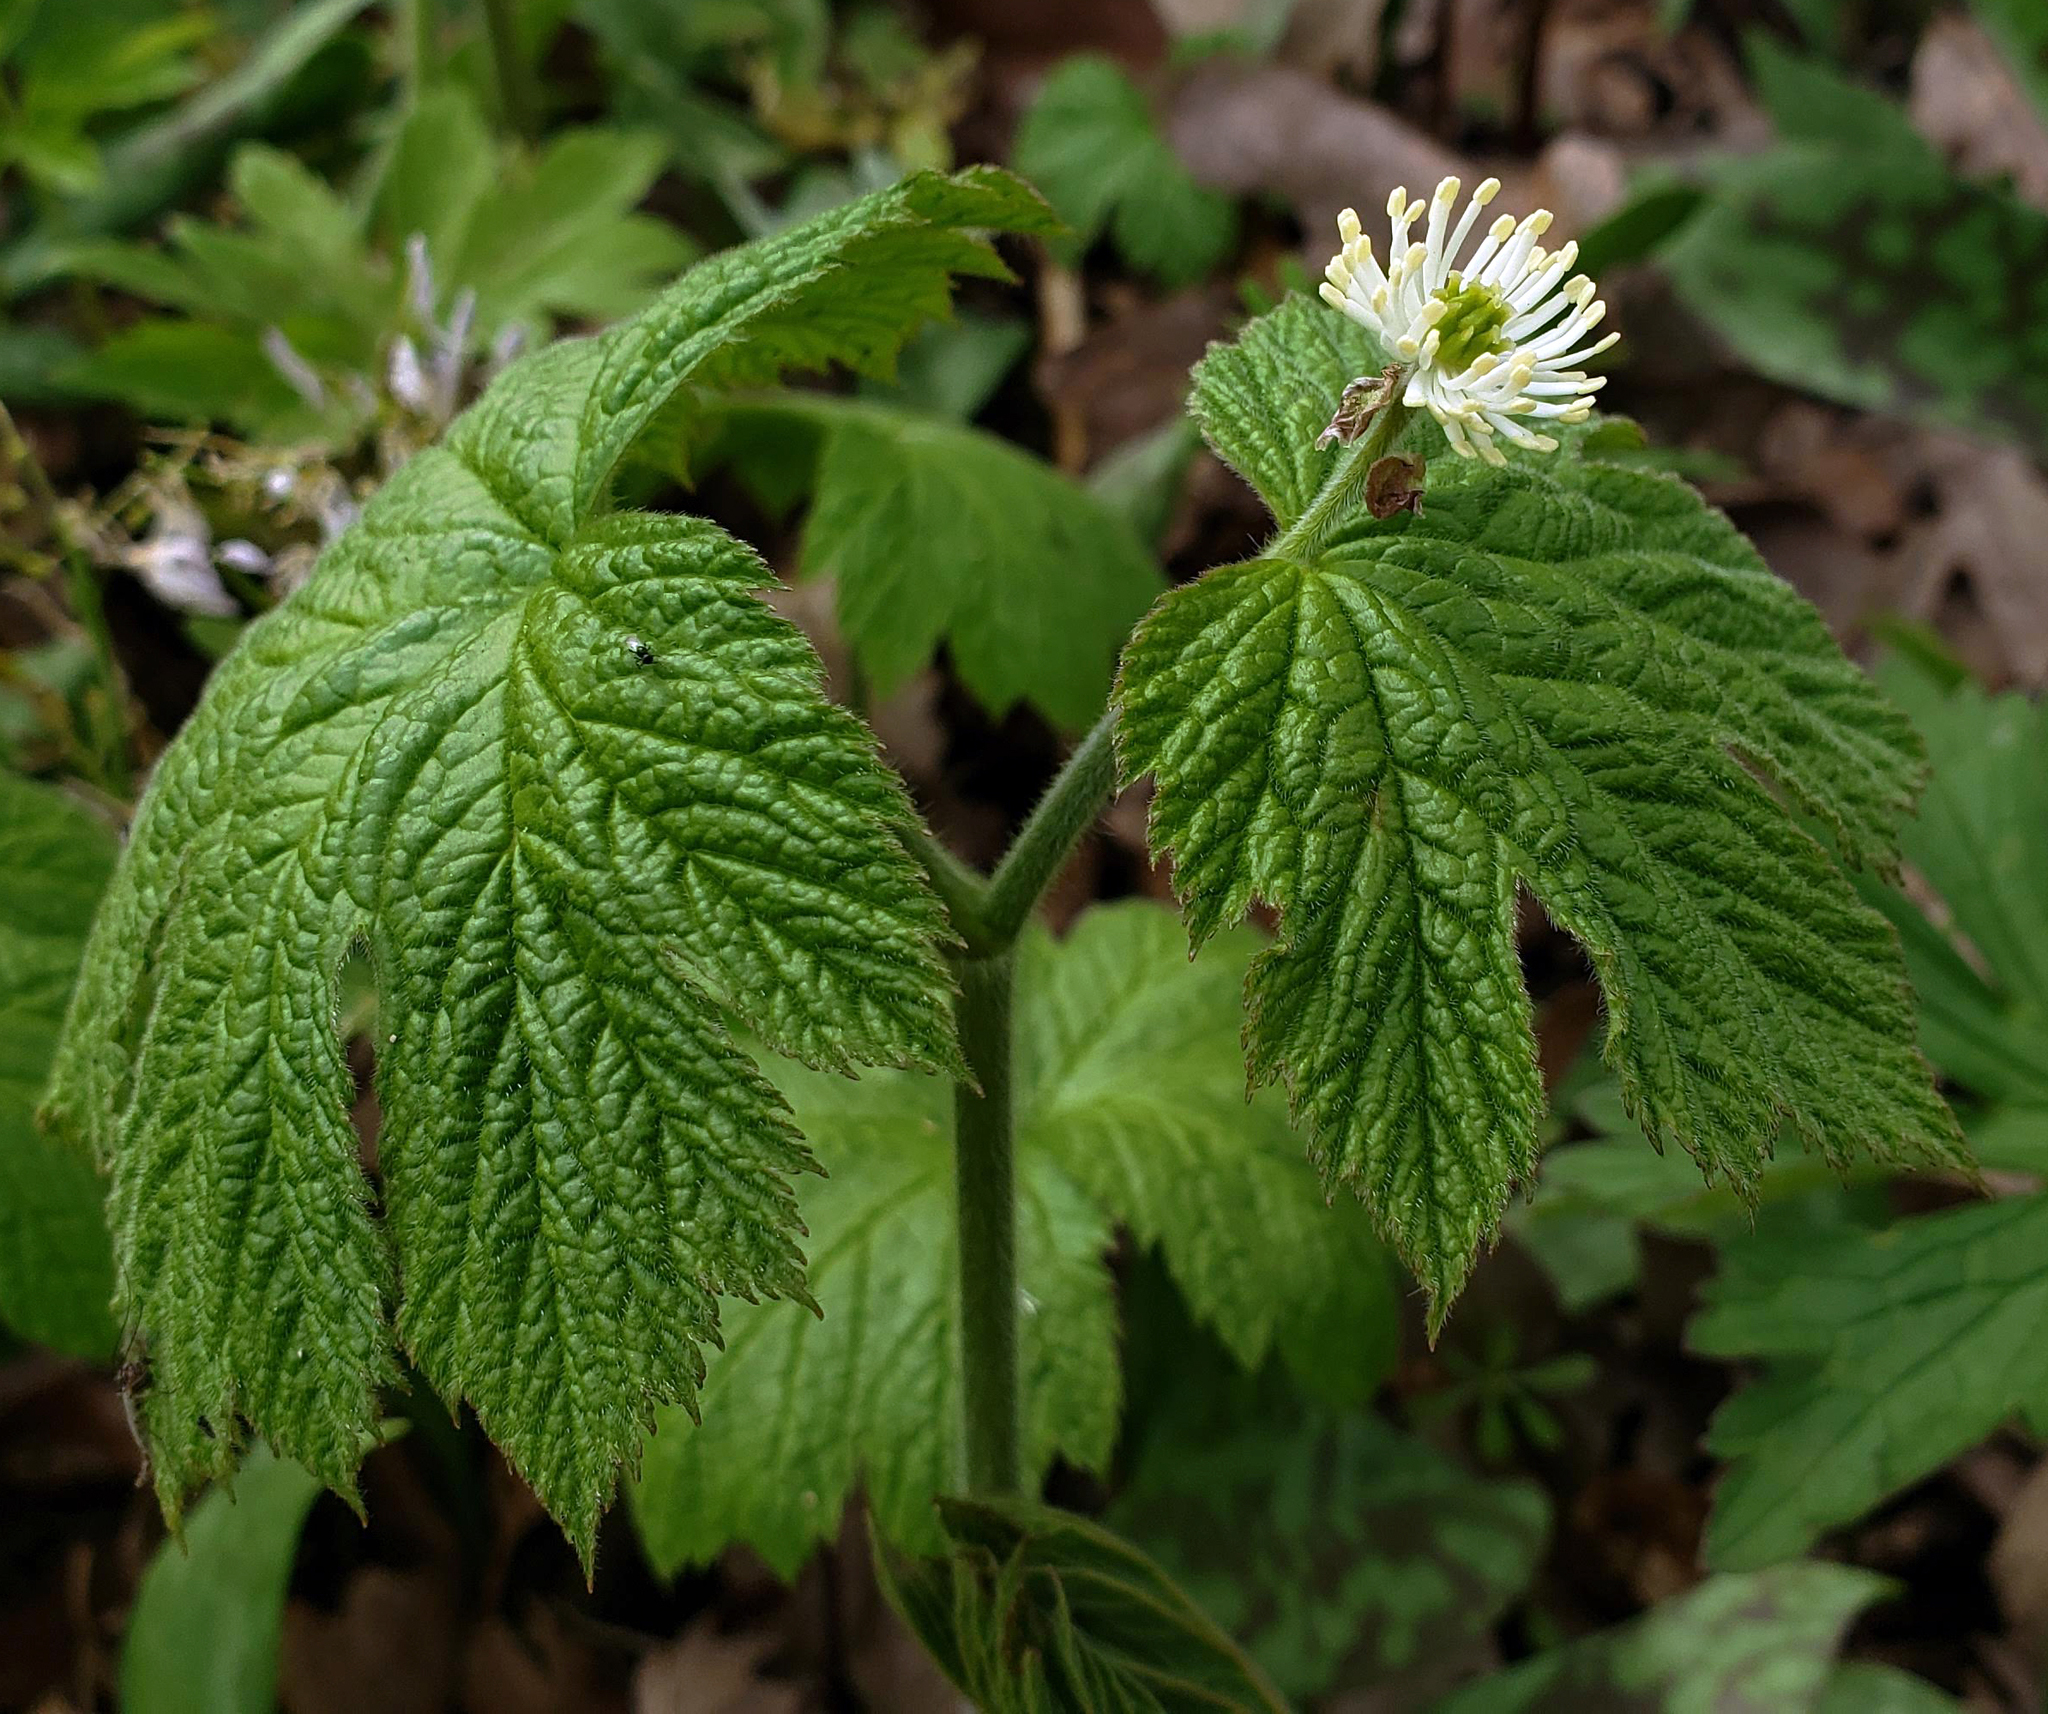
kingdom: Plantae
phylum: Tracheophyta
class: Magnoliopsida
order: Ranunculales
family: Ranunculaceae
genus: Hydrastis
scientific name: Hydrastis canadensis
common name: Goldenseal
